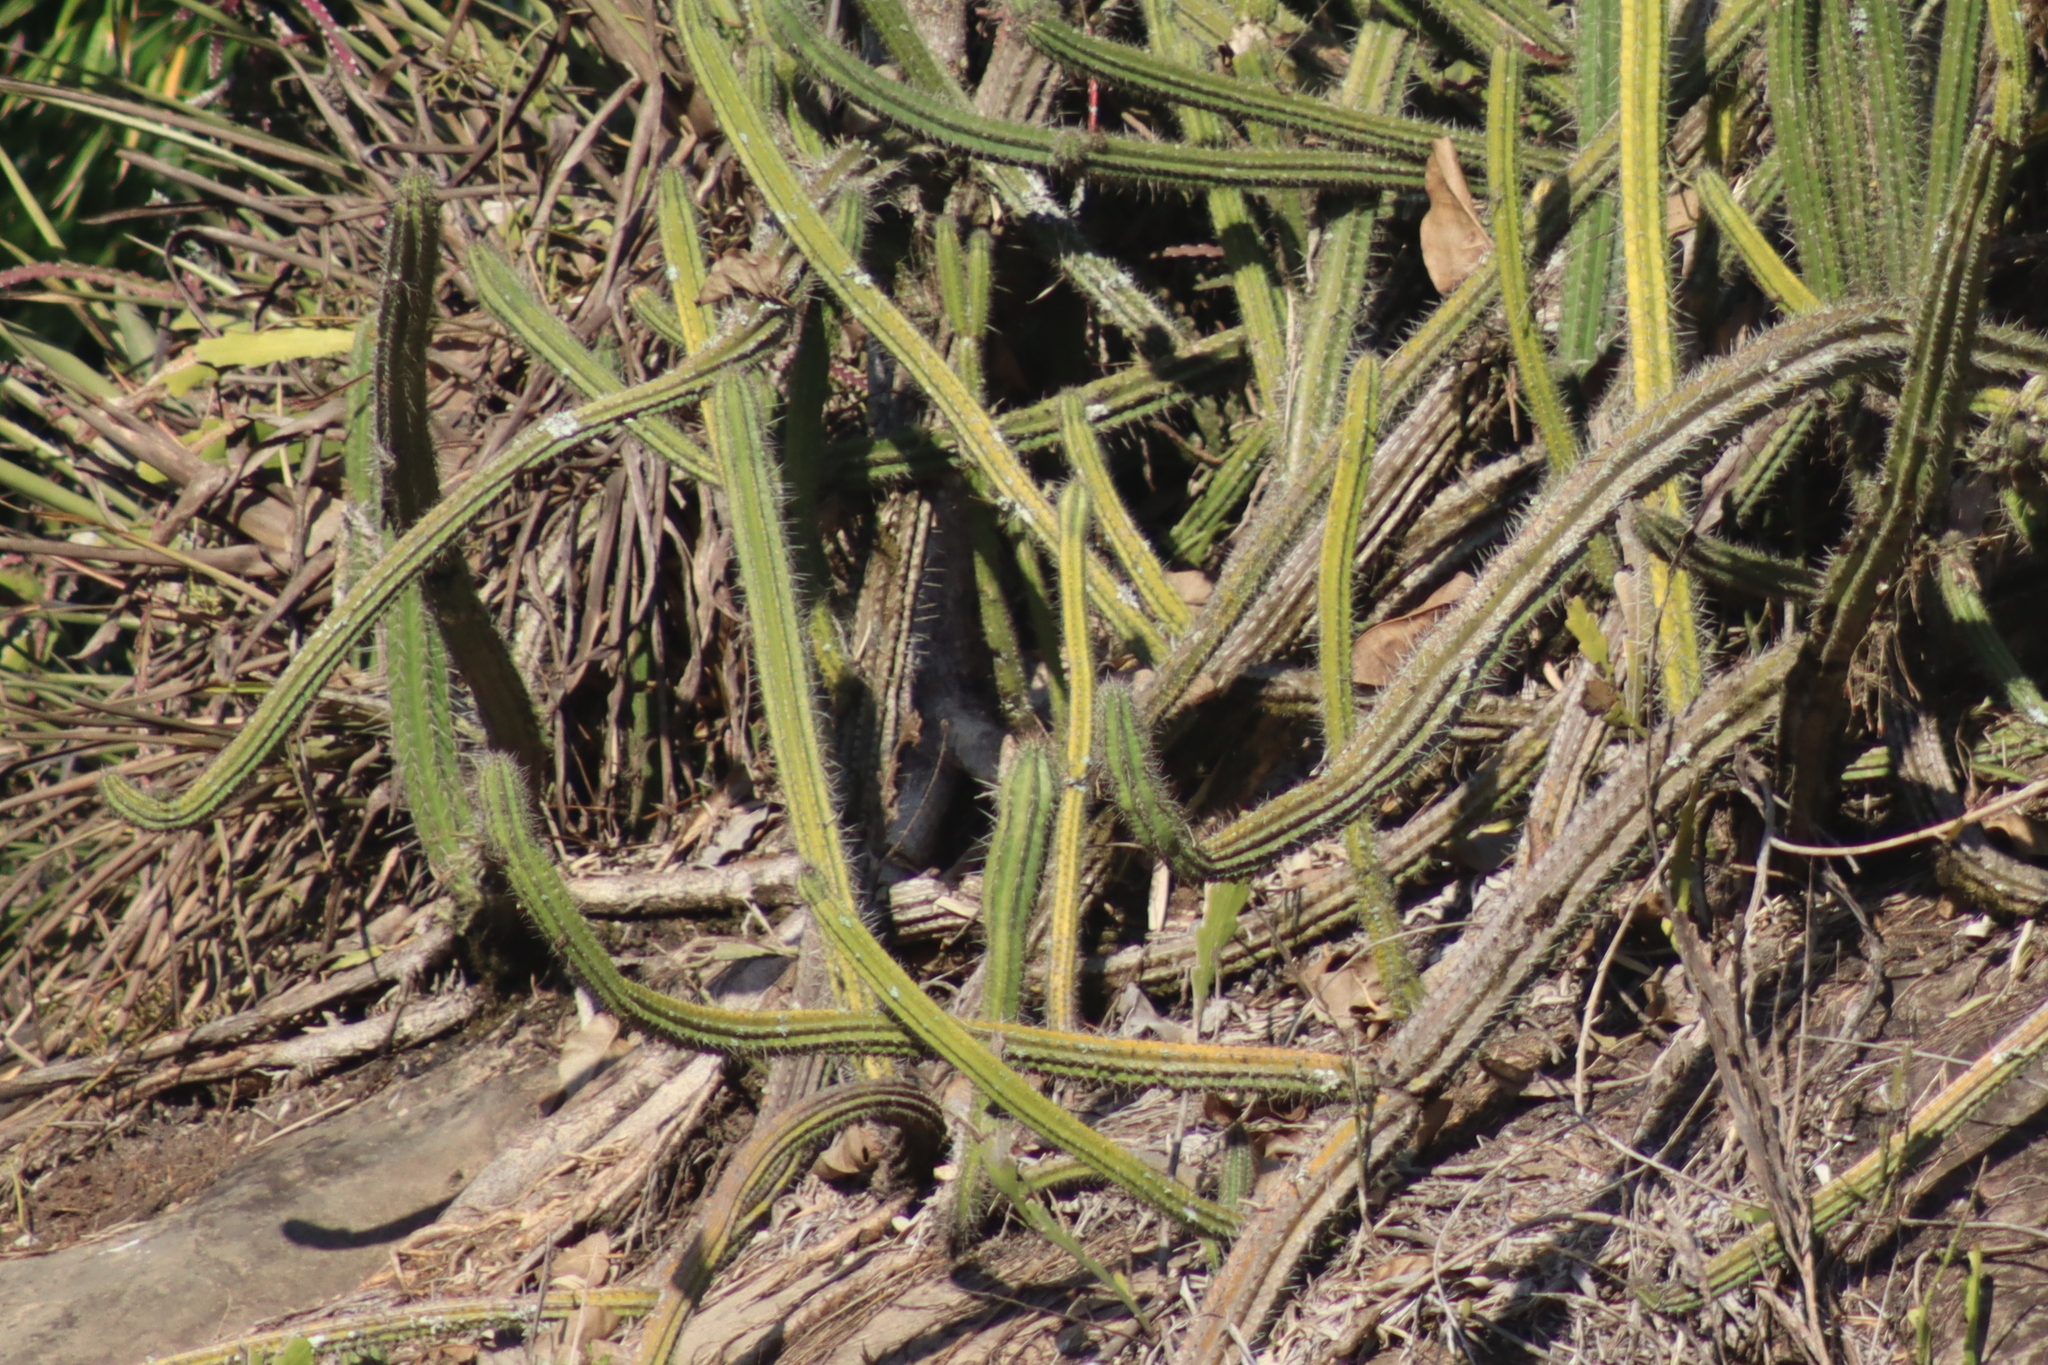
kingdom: Plantae
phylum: Tracheophyta
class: Magnoliopsida
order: Caryophyllales
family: Cactaceae
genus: Praecereus
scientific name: Praecereus euchlorus
